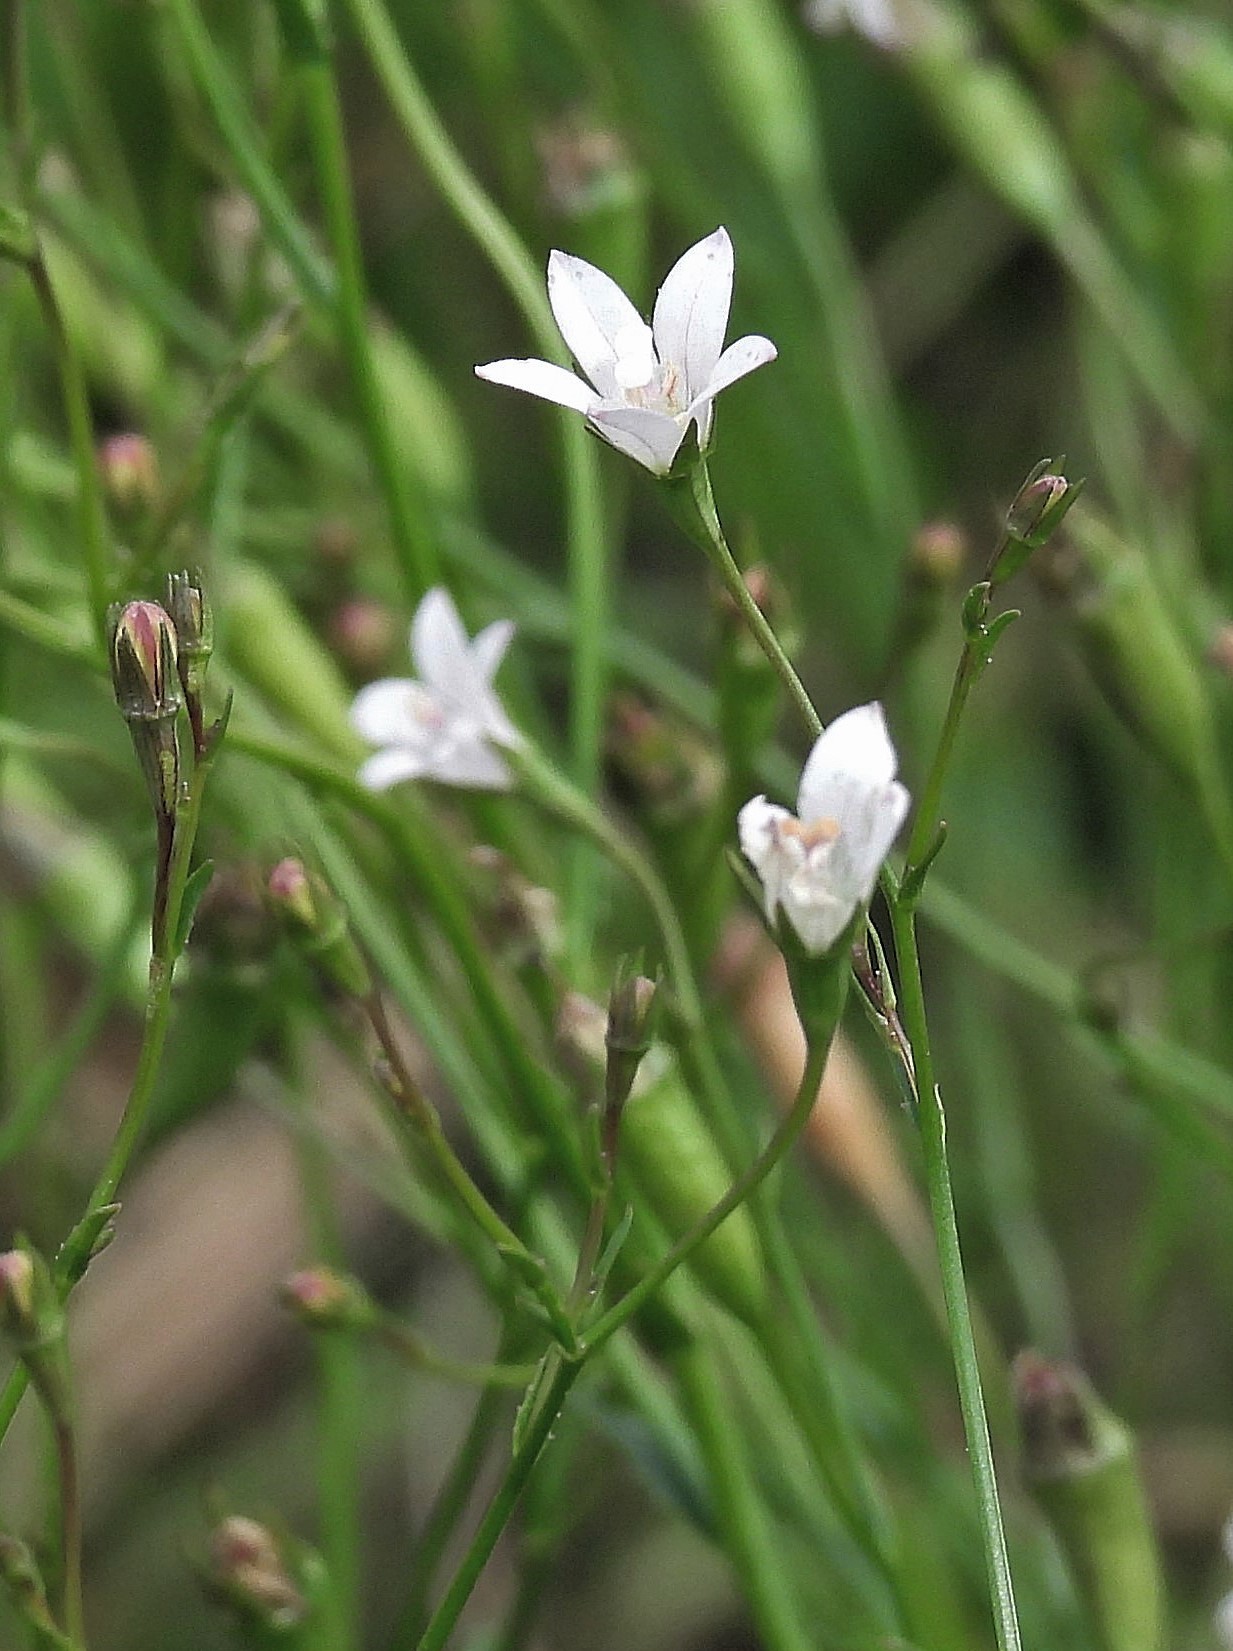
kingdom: Plantae
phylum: Tracheophyta
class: Magnoliopsida
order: Asterales
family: Campanulaceae
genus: Wahlenbergia
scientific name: Wahlenbergia linarioides
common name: Tuffybells
